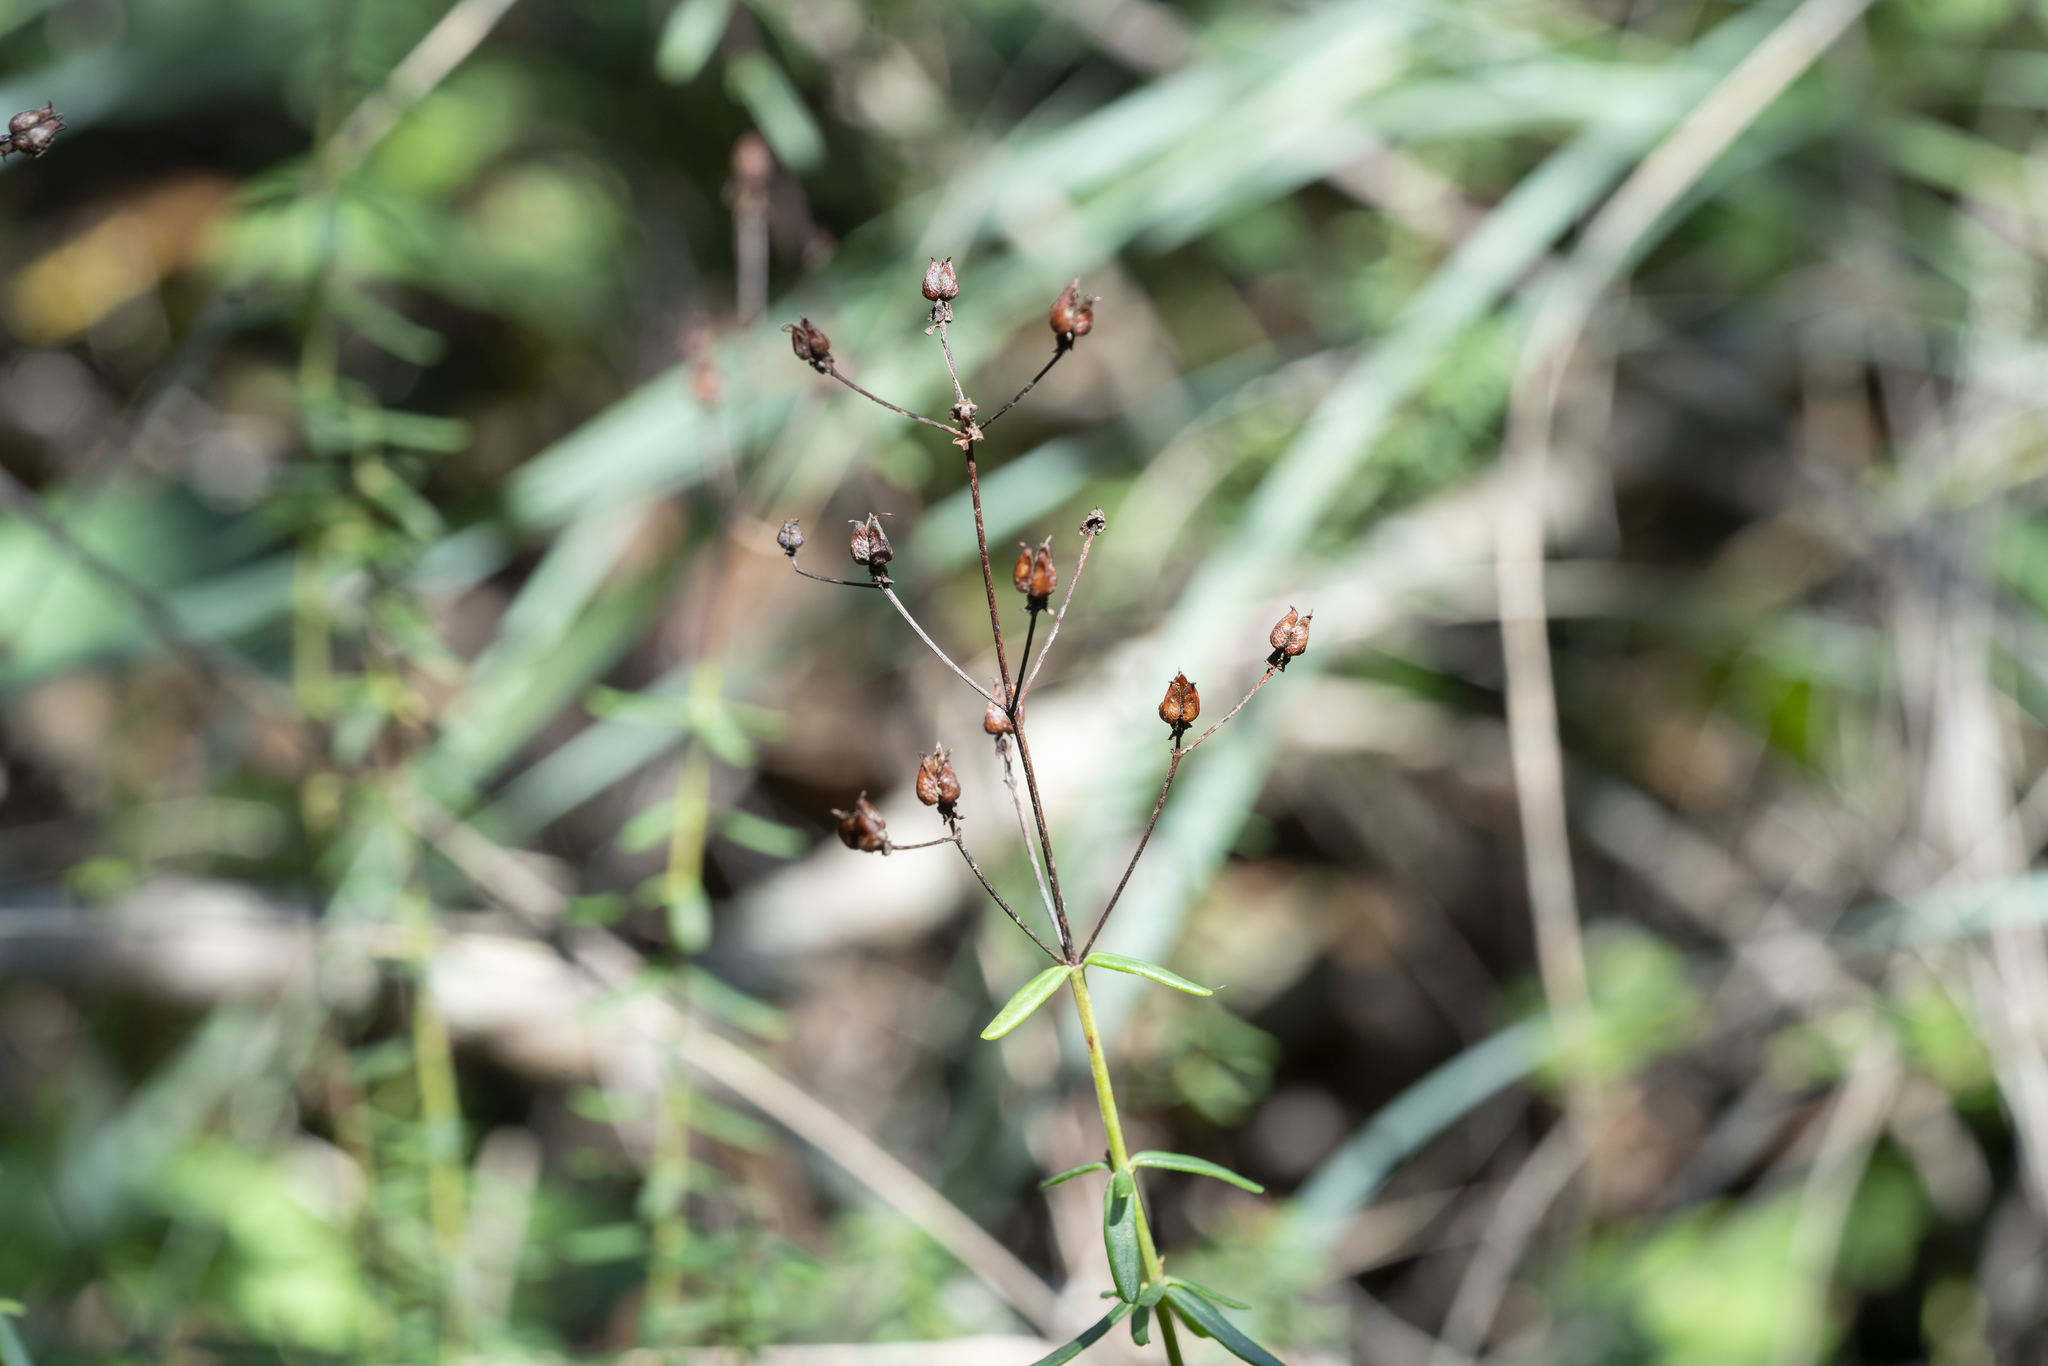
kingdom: Plantae
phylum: Tracheophyta
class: Magnoliopsida
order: Malpighiales
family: Hypericaceae
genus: Hypericum
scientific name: Hypericum empetrifolium
